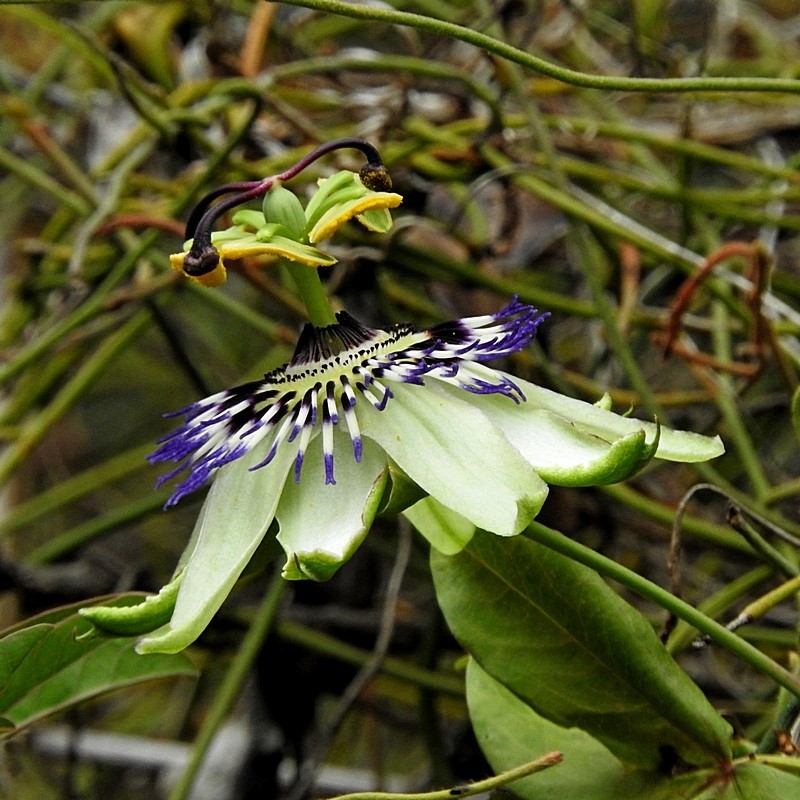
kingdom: Plantae
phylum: Tracheophyta
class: Magnoliopsida
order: Malpighiales
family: Passifloraceae
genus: Passiflora
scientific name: Passiflora caerulea
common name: Blue passionflower
